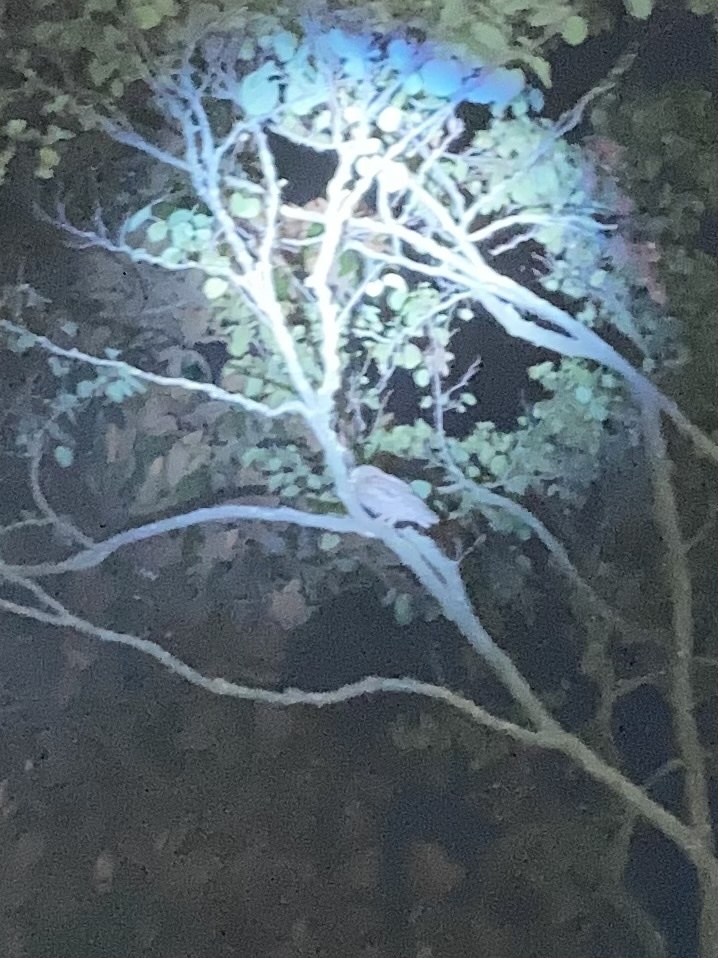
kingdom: Animalia
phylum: Chordata
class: Aves
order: Strigiformes
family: Strigidae
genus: Otus
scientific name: Otus scops
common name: Eurasian scops owl
